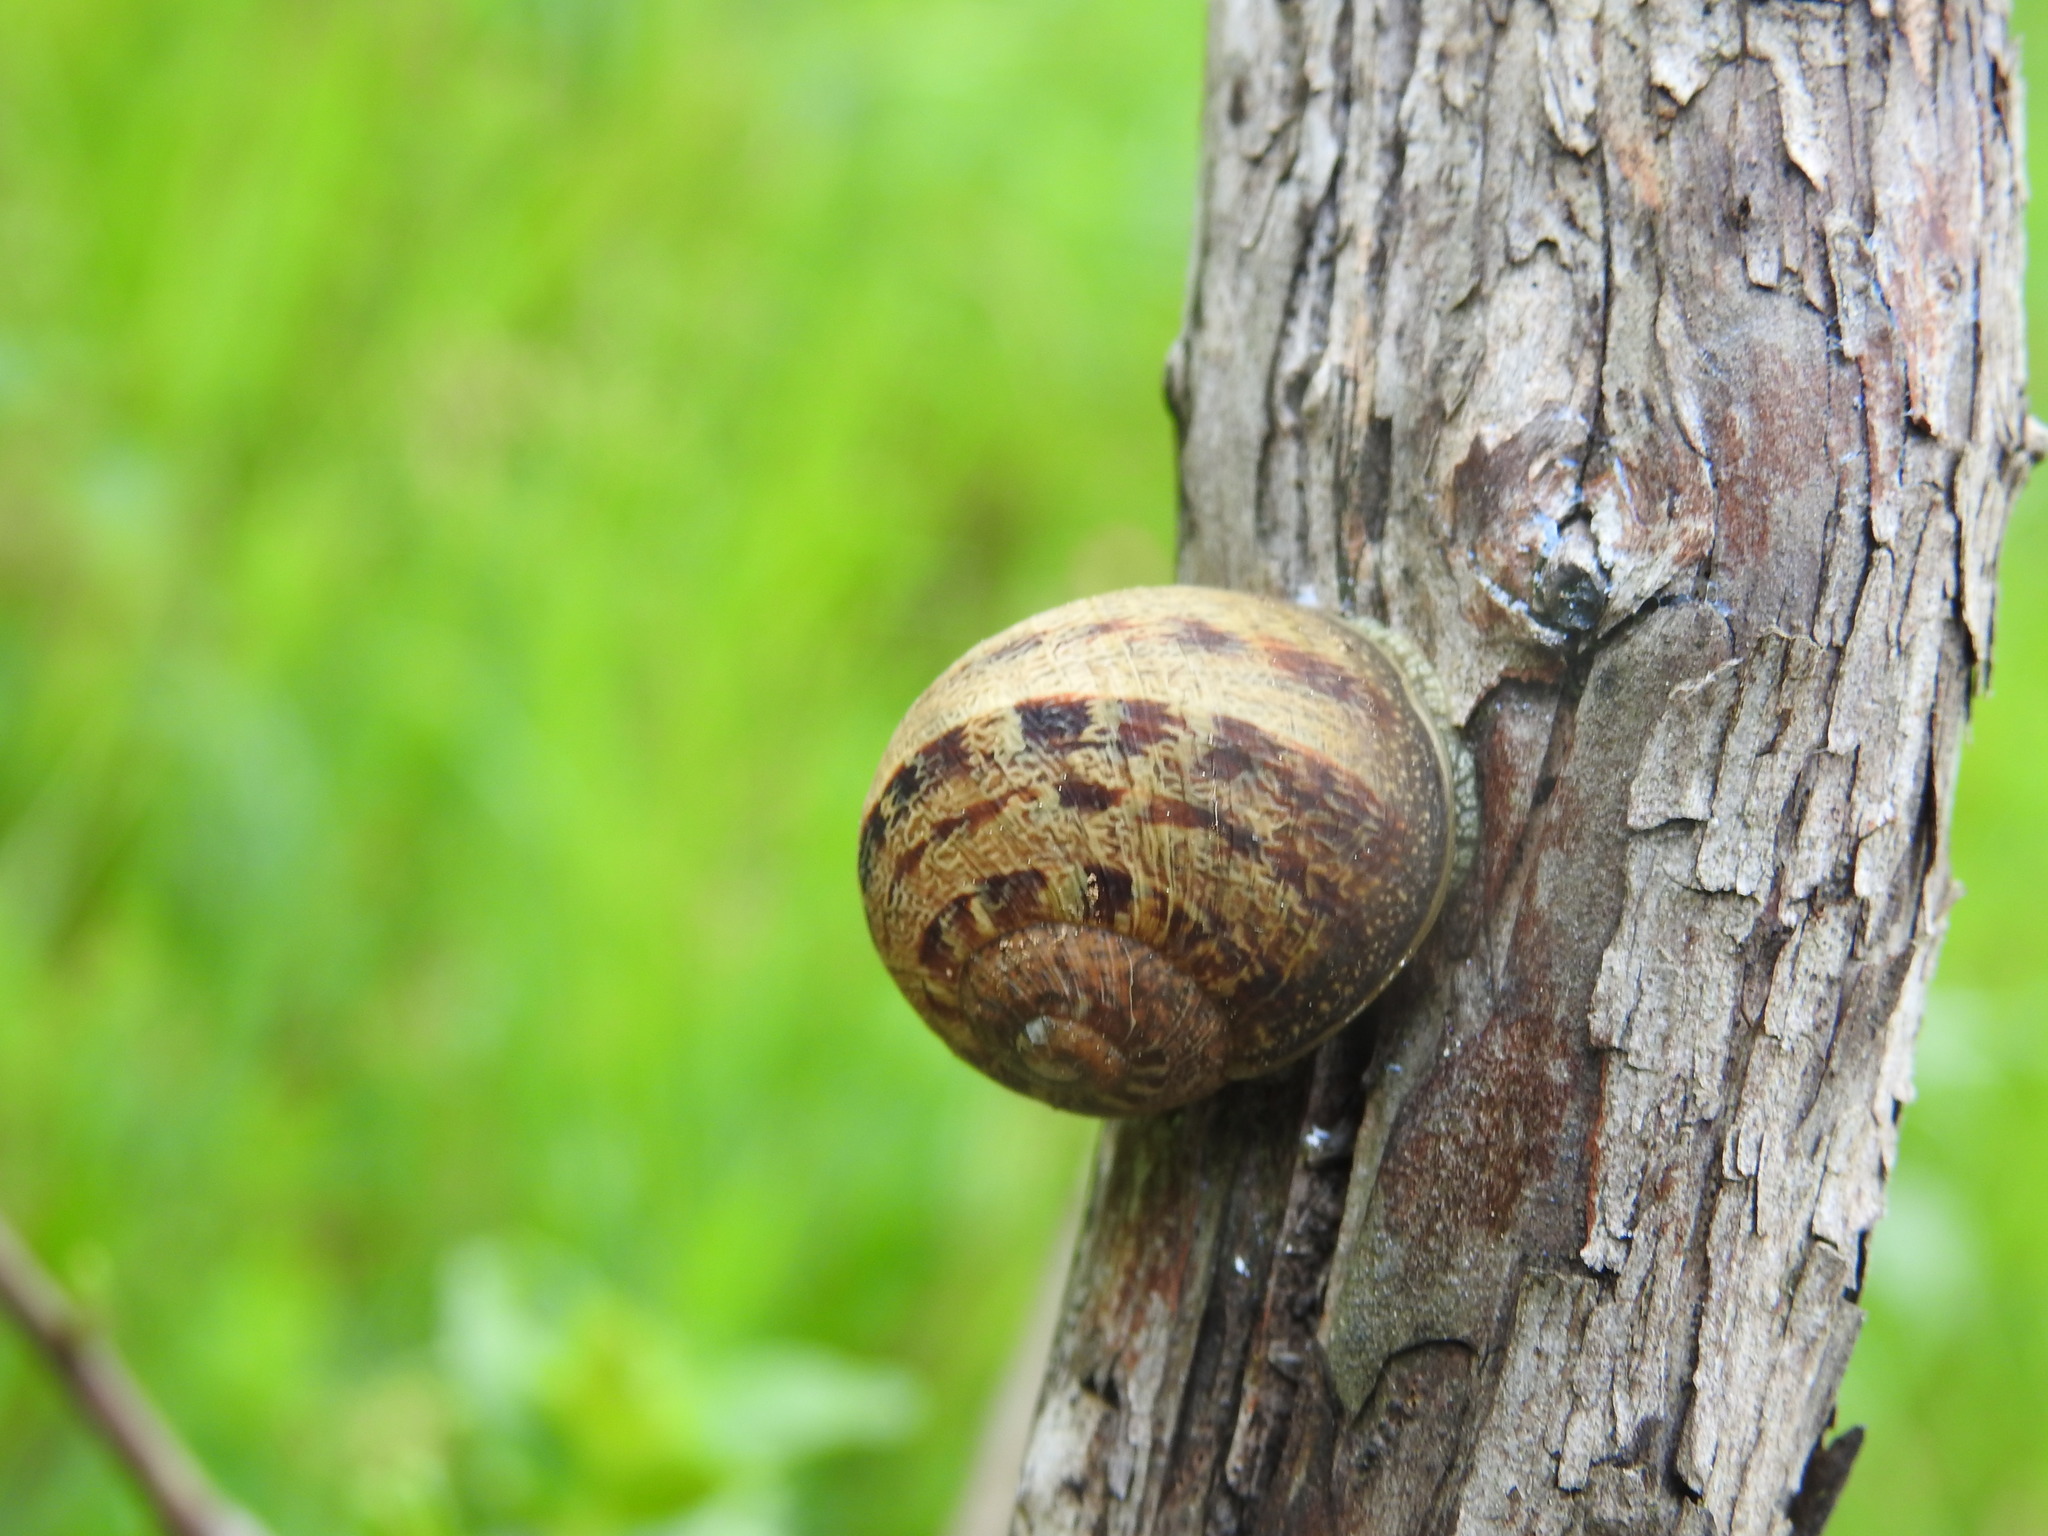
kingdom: Animalia
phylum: Mollusca
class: Gastropoda
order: Stylommatophora
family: Helicidae
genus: Cornu
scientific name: Cornu aspersum
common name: Brown garden snail
